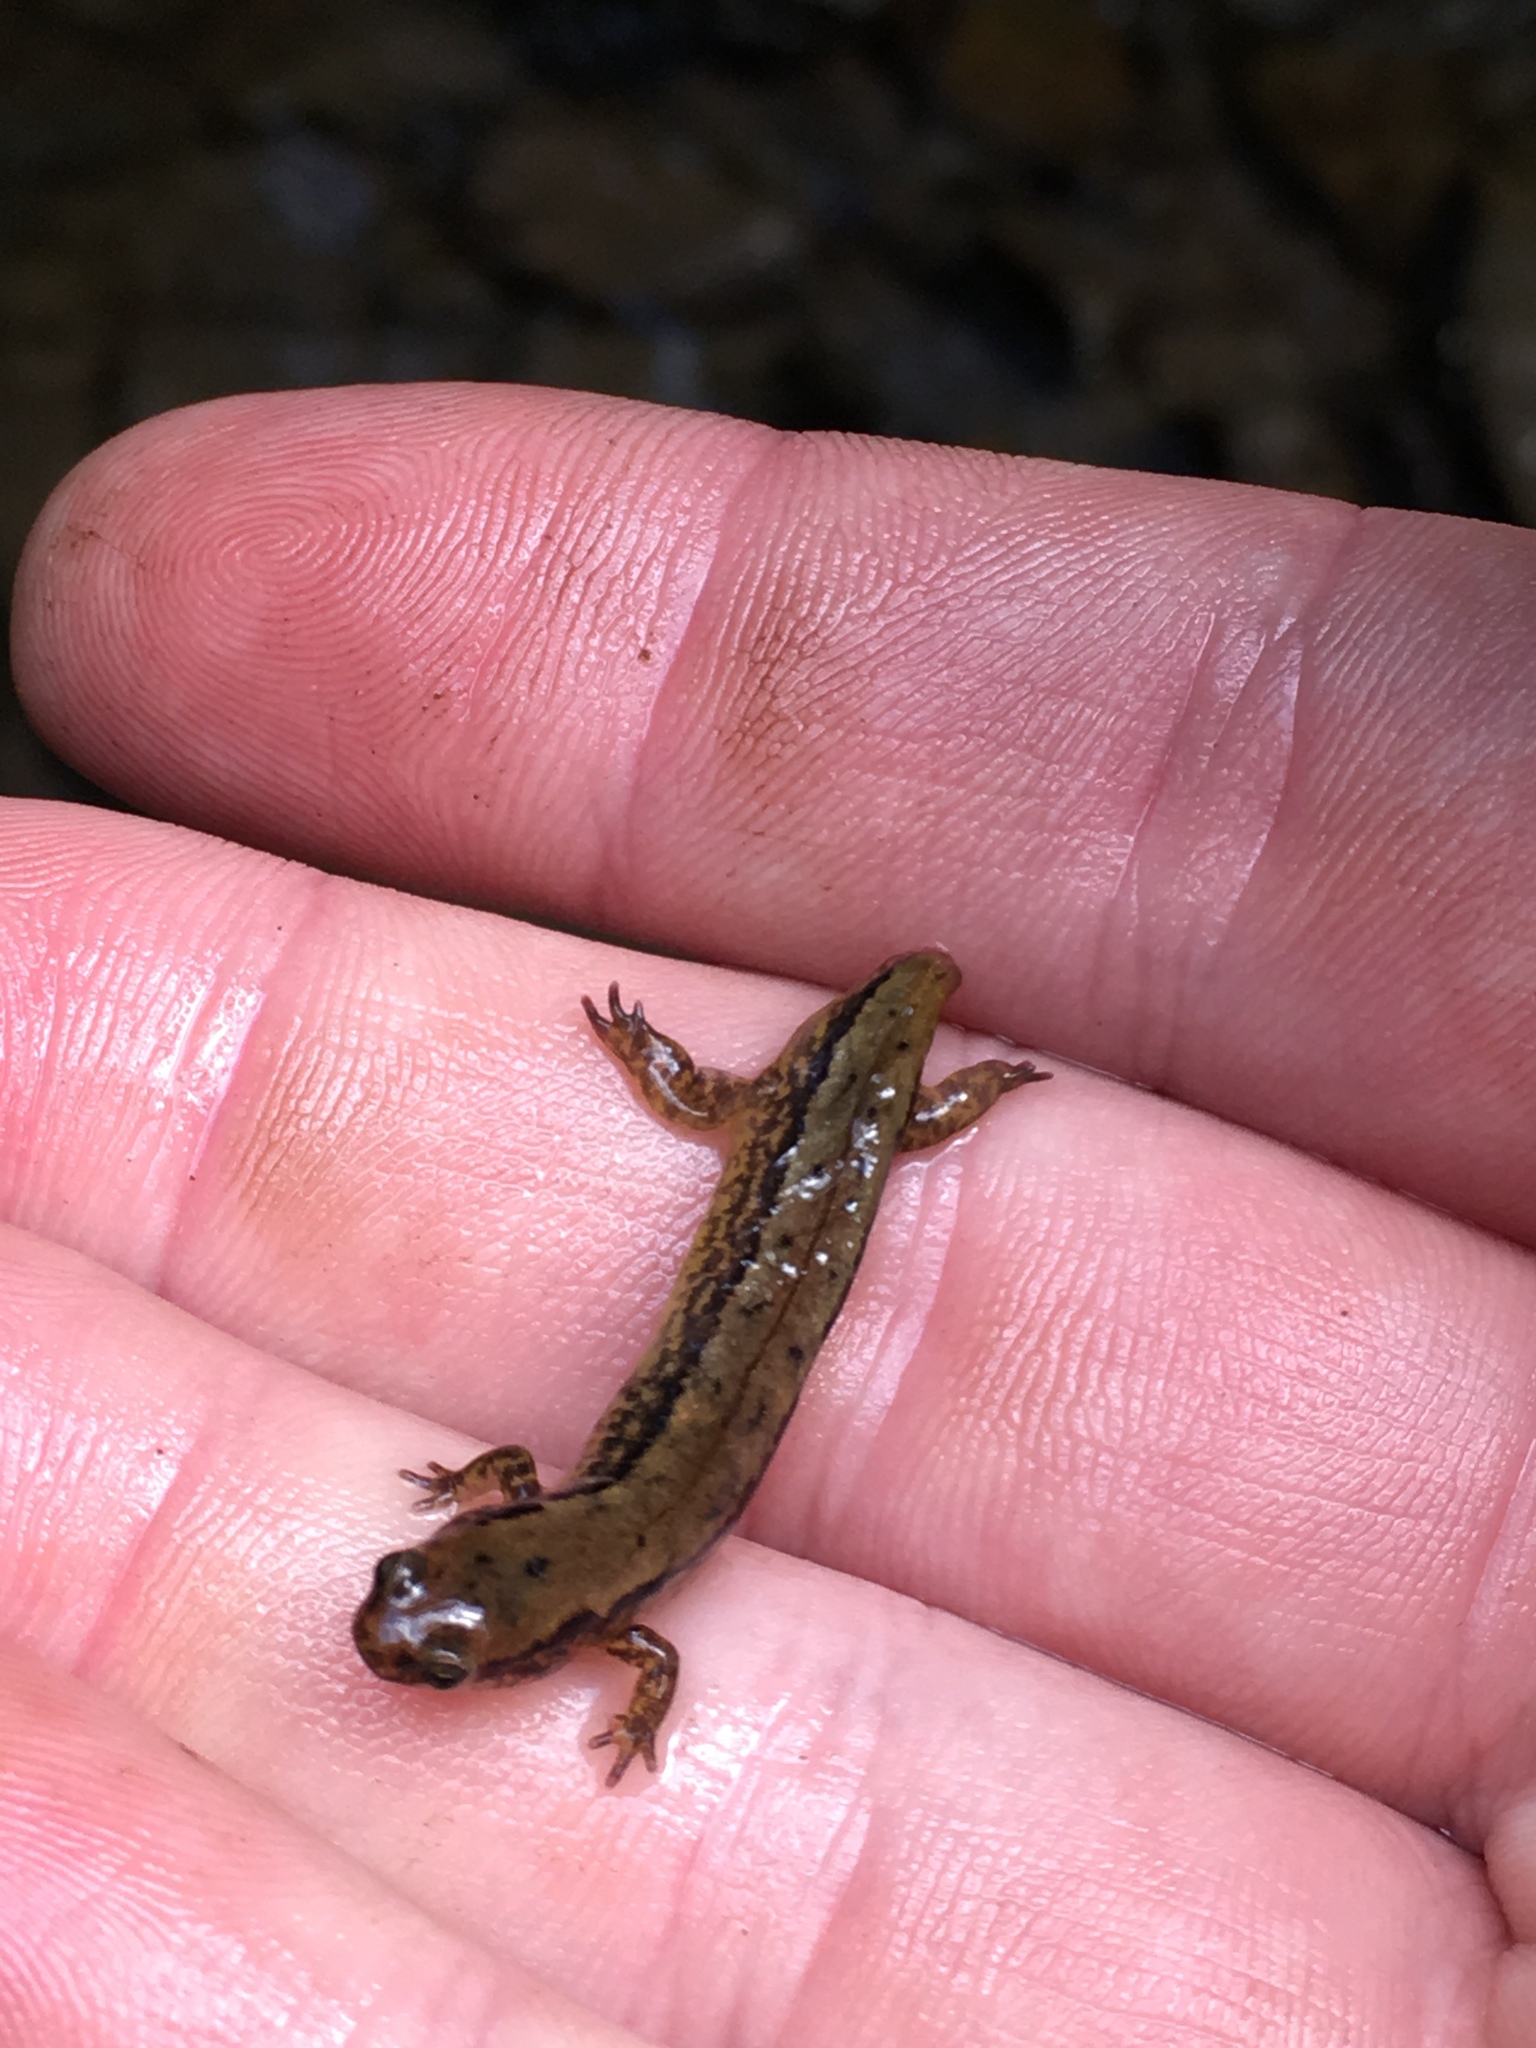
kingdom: Animalia
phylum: Chordata
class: Amphibia
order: Caudata
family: Plethodontidae
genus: Eurycea
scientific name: Eurycea cirrigera
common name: Southern two-lined salamander
